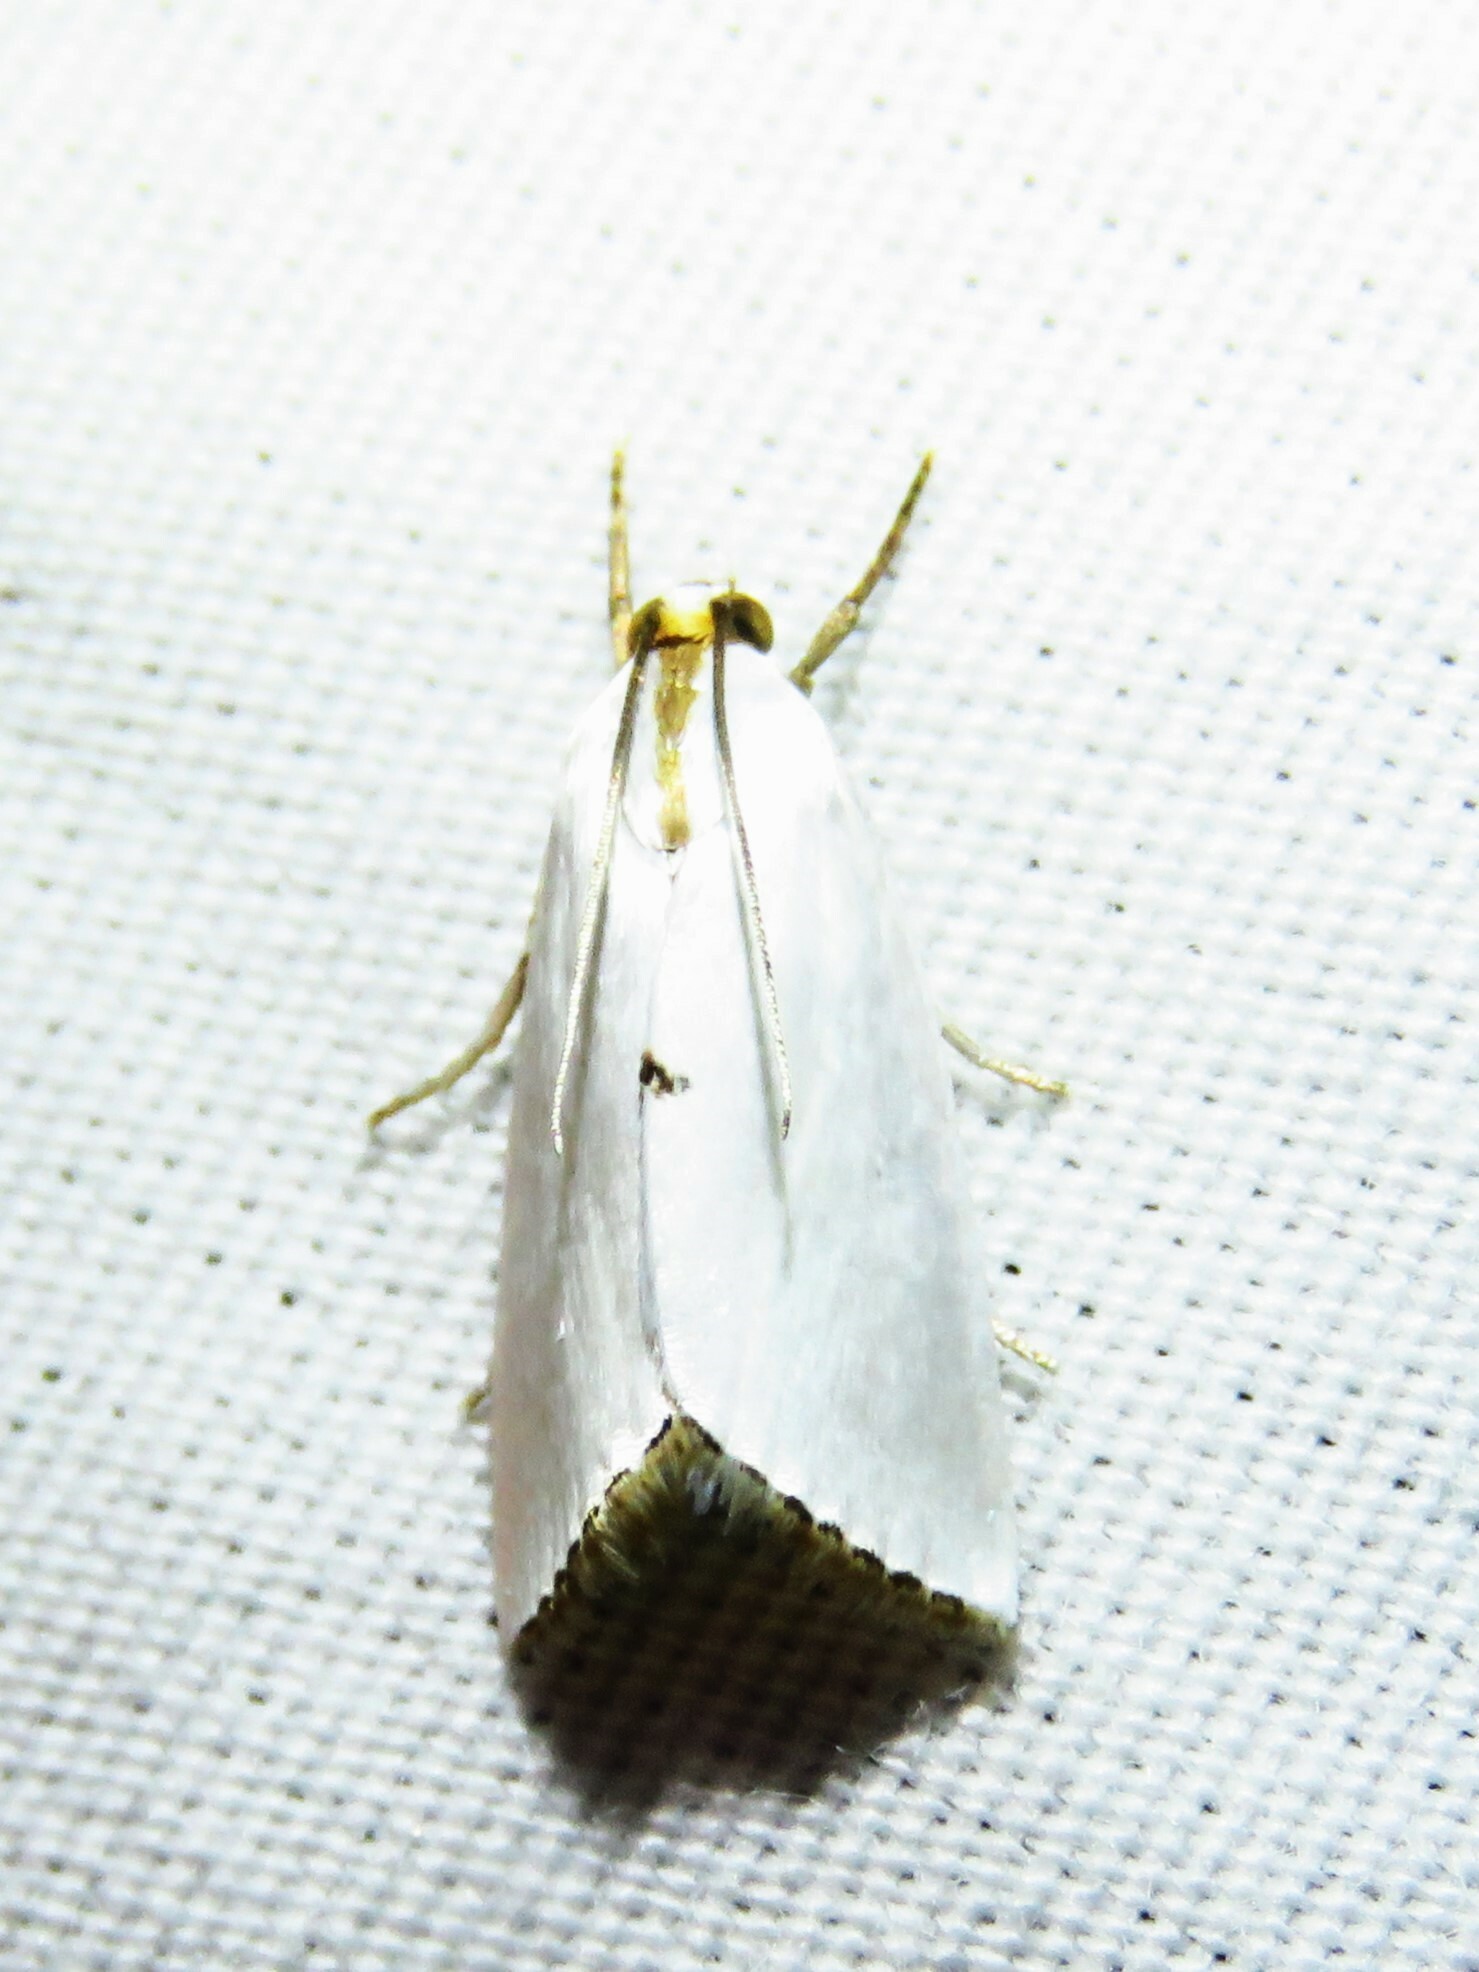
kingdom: Animalia
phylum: Arthropoda
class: Insecta
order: Lepidoptera
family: Crambidae
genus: Argyria
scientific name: Argyria nivalis
